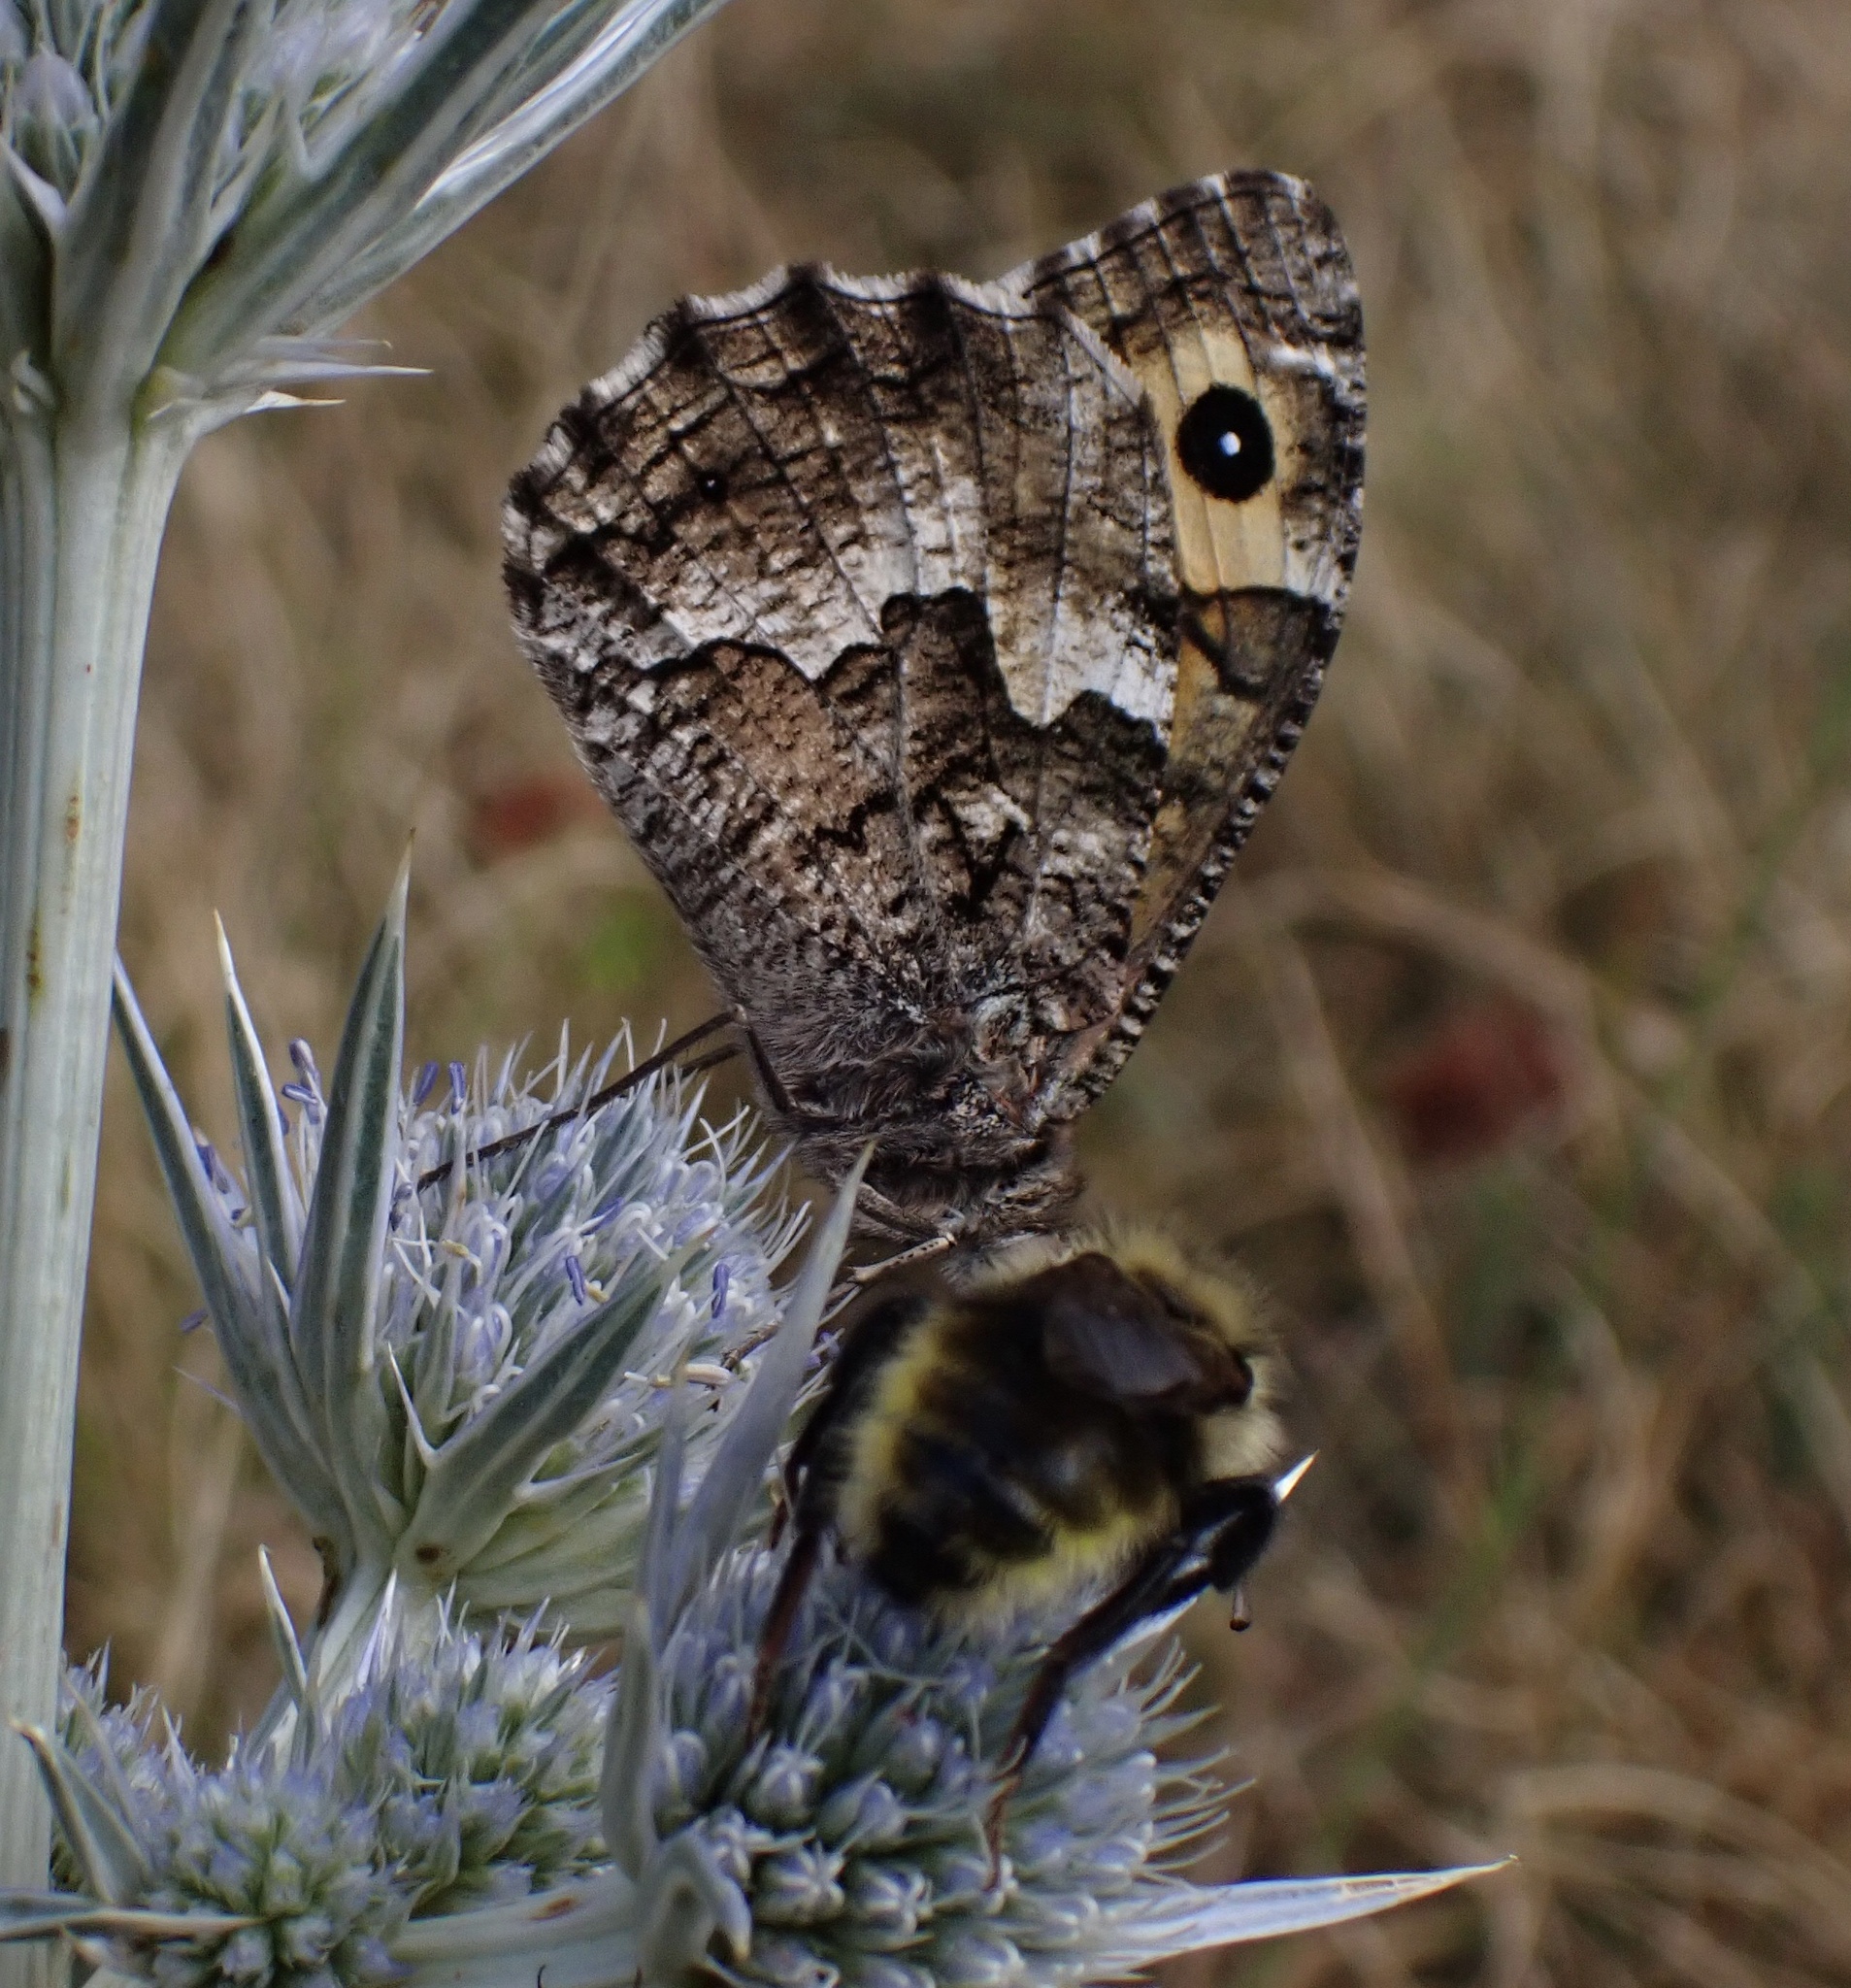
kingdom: Animalia
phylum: Arthropoda
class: Insecta
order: Lepidoptera
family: Nymphalidae
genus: Hipparchia
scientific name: Hipparchia semele
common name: Grayling
